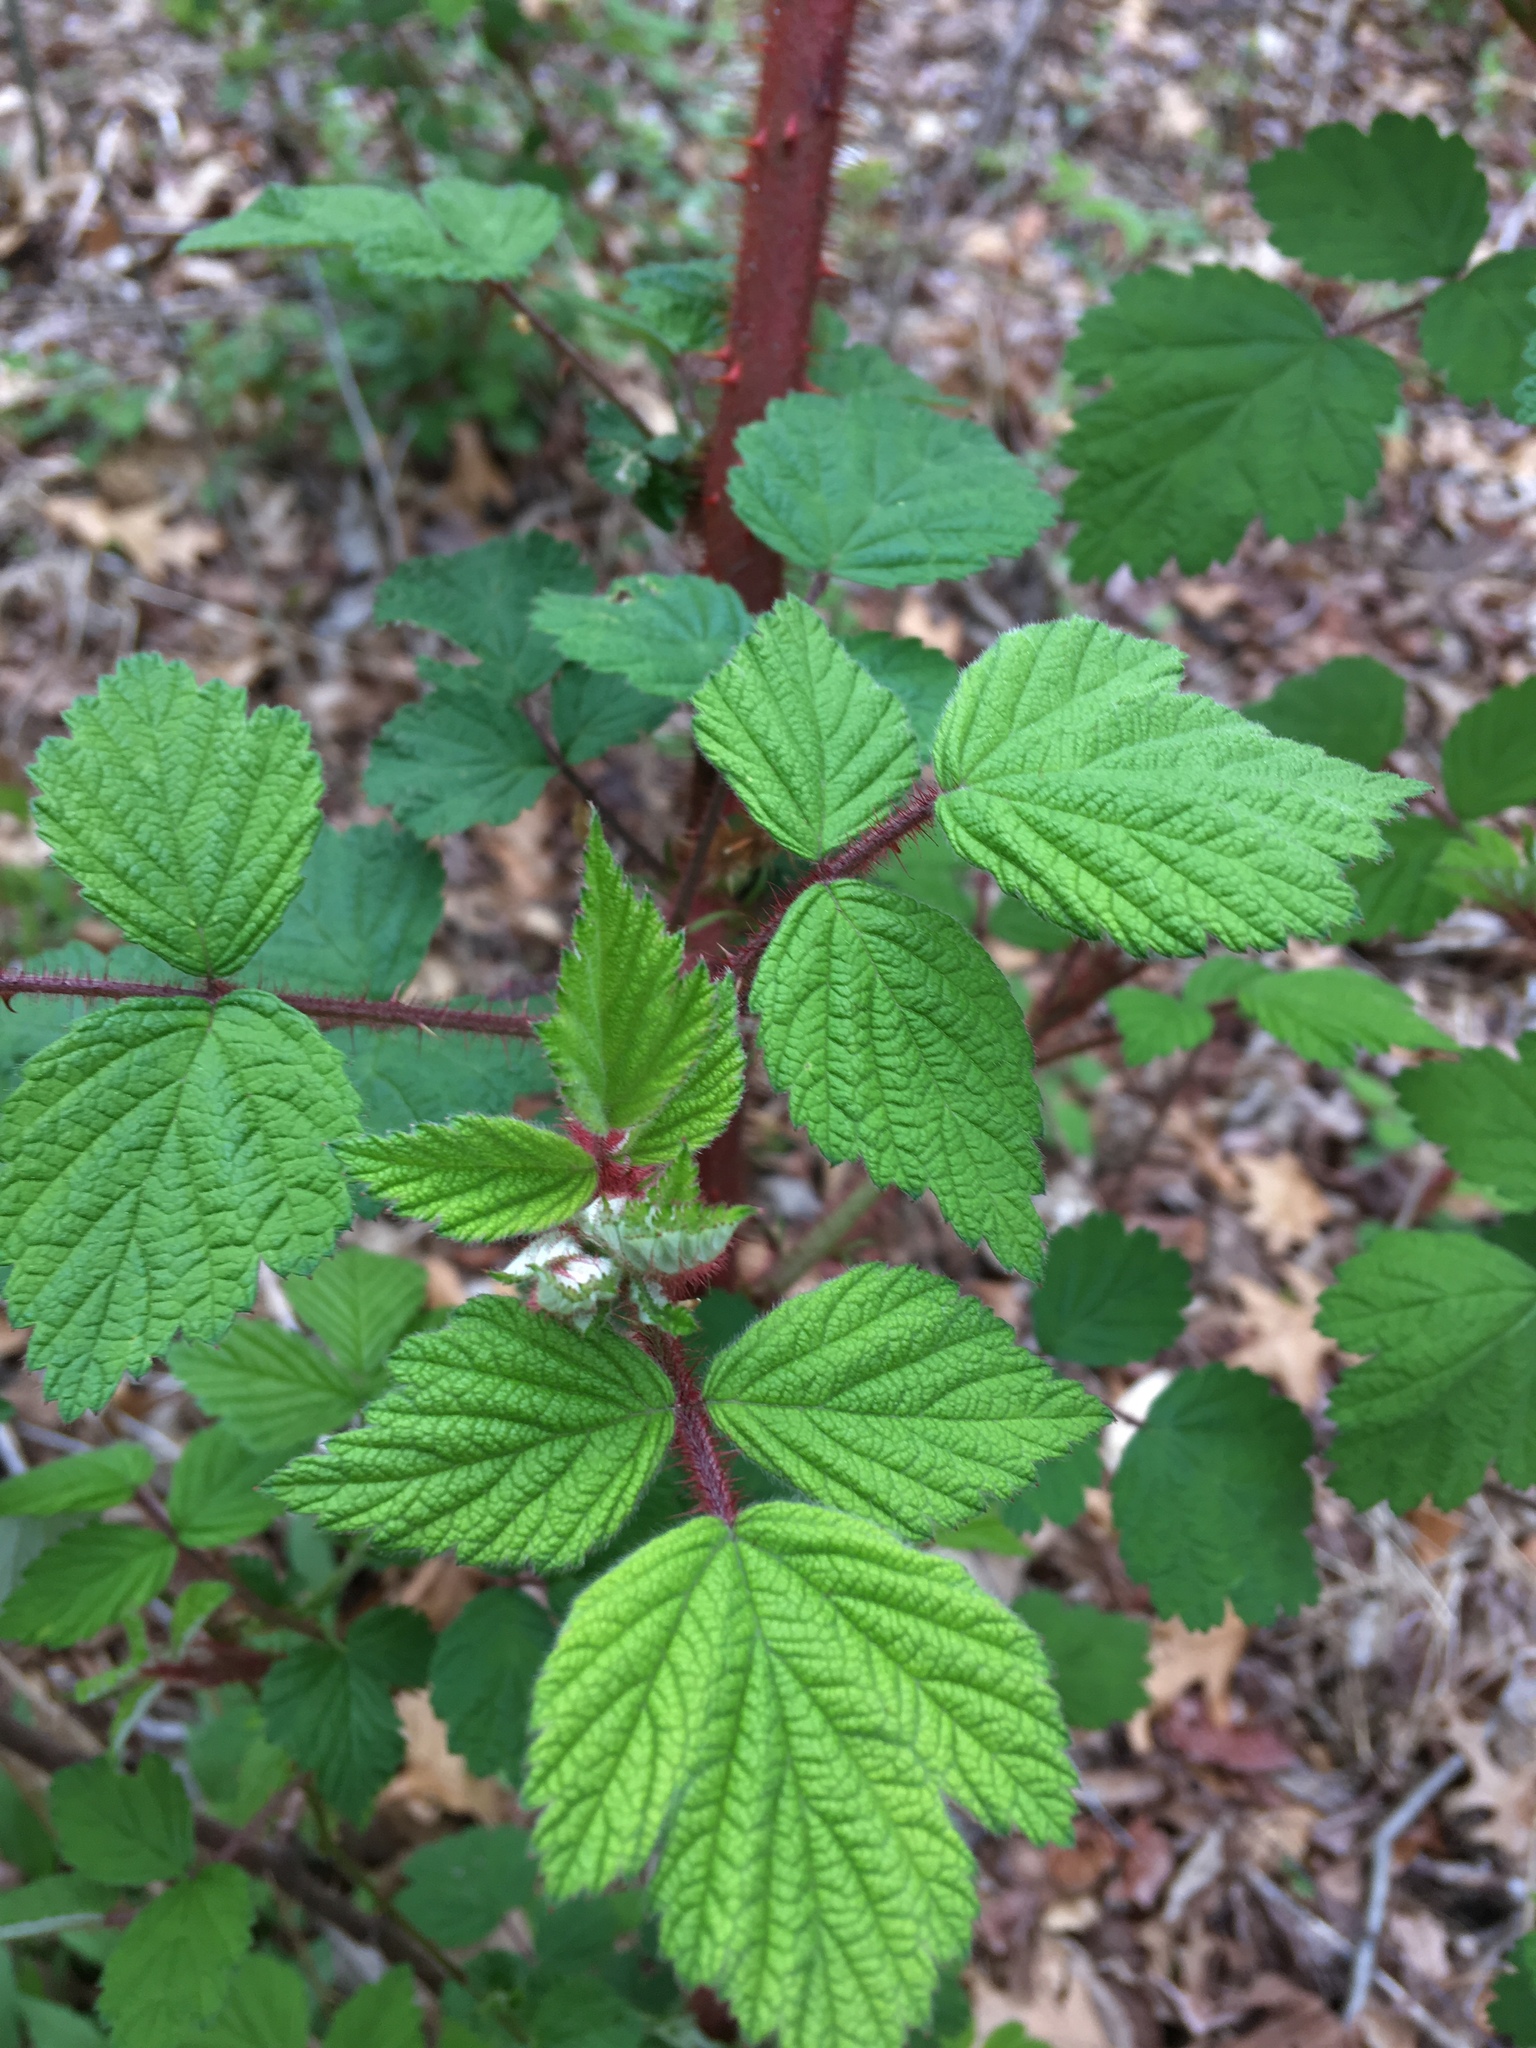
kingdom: Plantae
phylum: Tracheophyta
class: Magnoliopsida
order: Rosales
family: Rosaceae
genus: Rubus
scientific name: Rubus phoenicolasius
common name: Japanese wineberry
